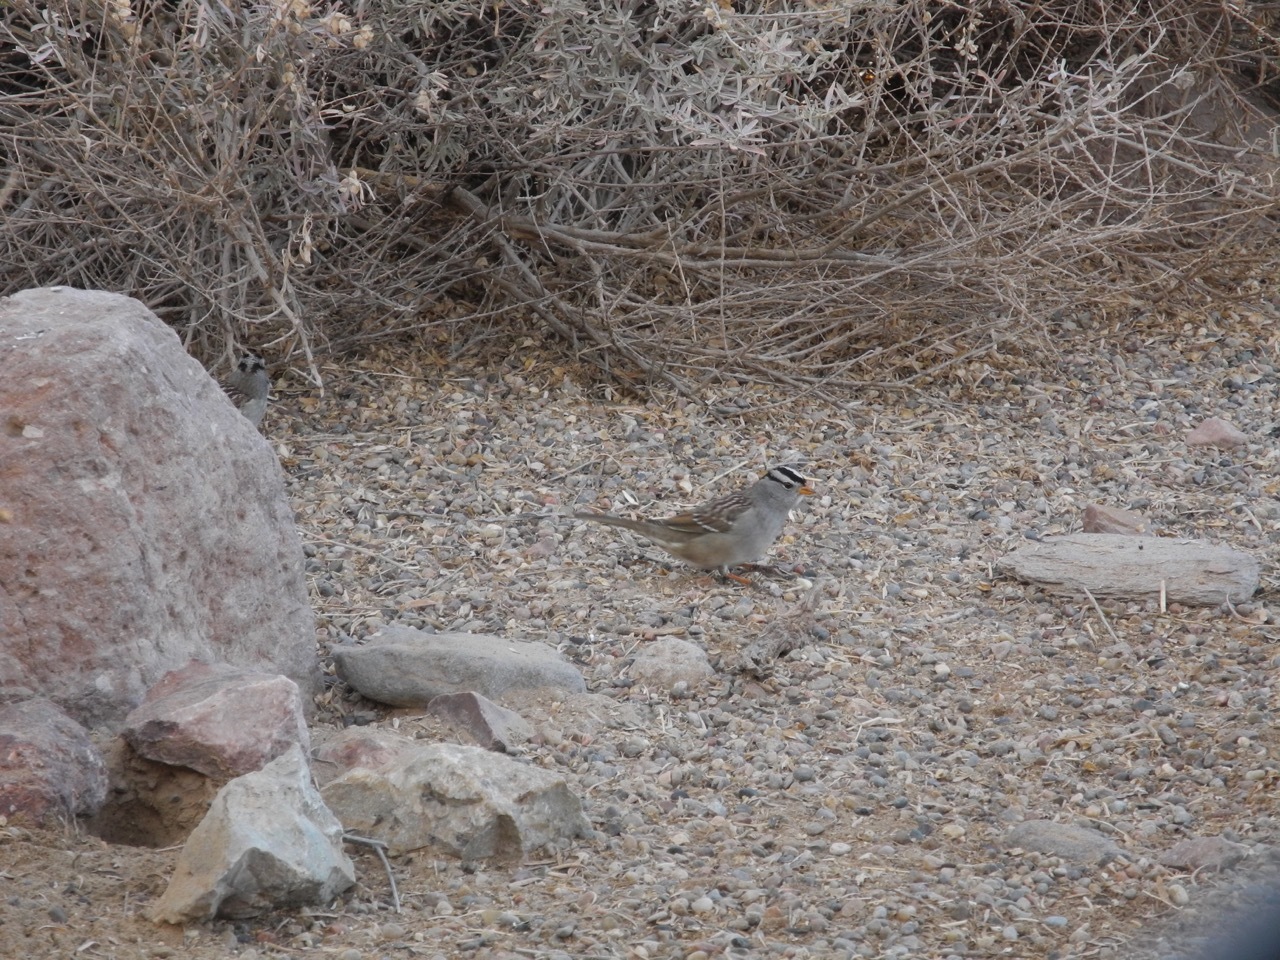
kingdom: Animalia
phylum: Chordata
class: Aves
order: Passeriformes
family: Passerellidae
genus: Zonotrichia
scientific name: Zonotrichia leucophrys
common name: White-crowned sparrow
